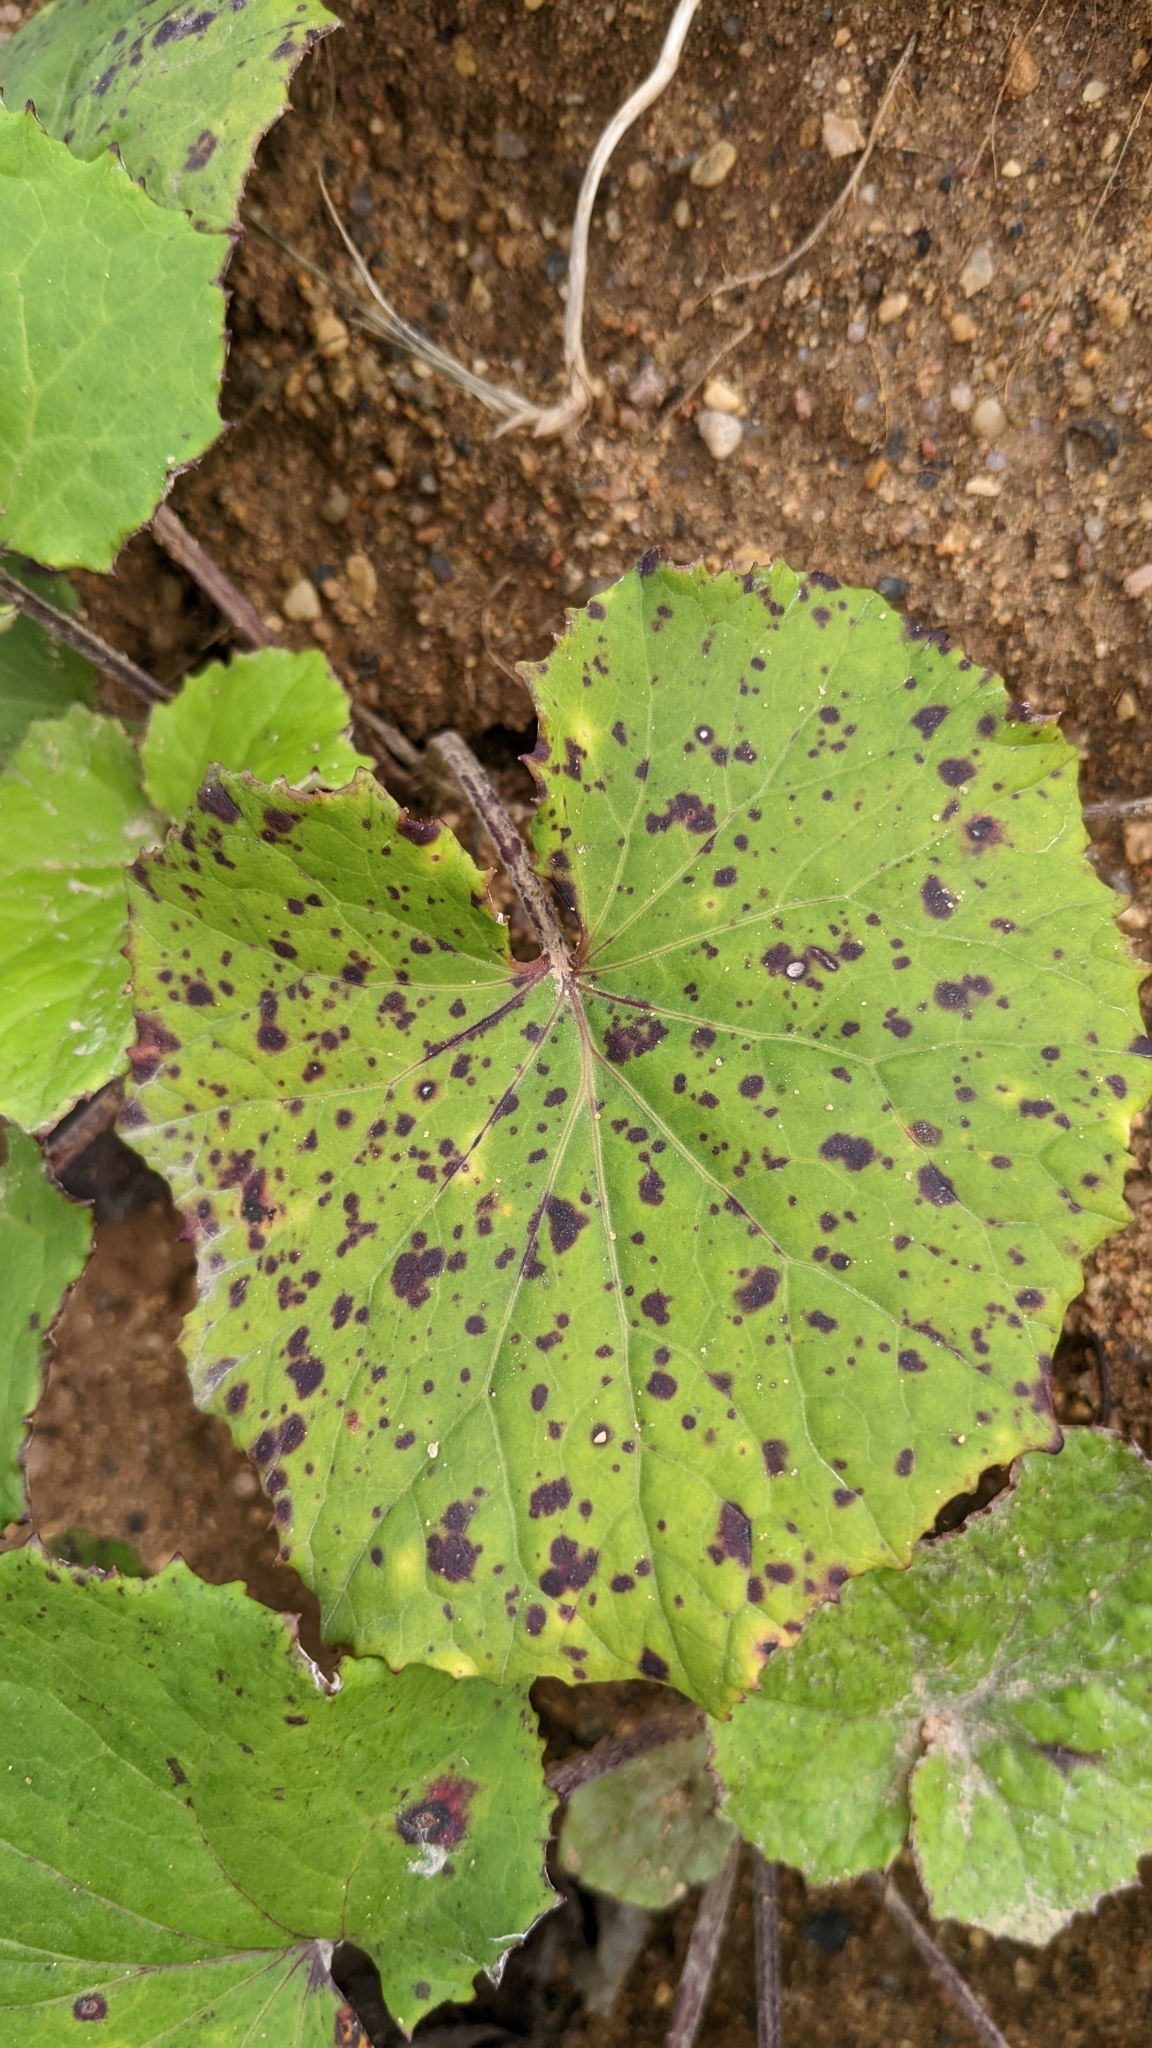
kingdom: Plantae
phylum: Tracheophyta
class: Magnoliopsida
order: Asterales
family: Asteraceae
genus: Tussilago
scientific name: Tussilago farfara
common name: Coltsfoot
